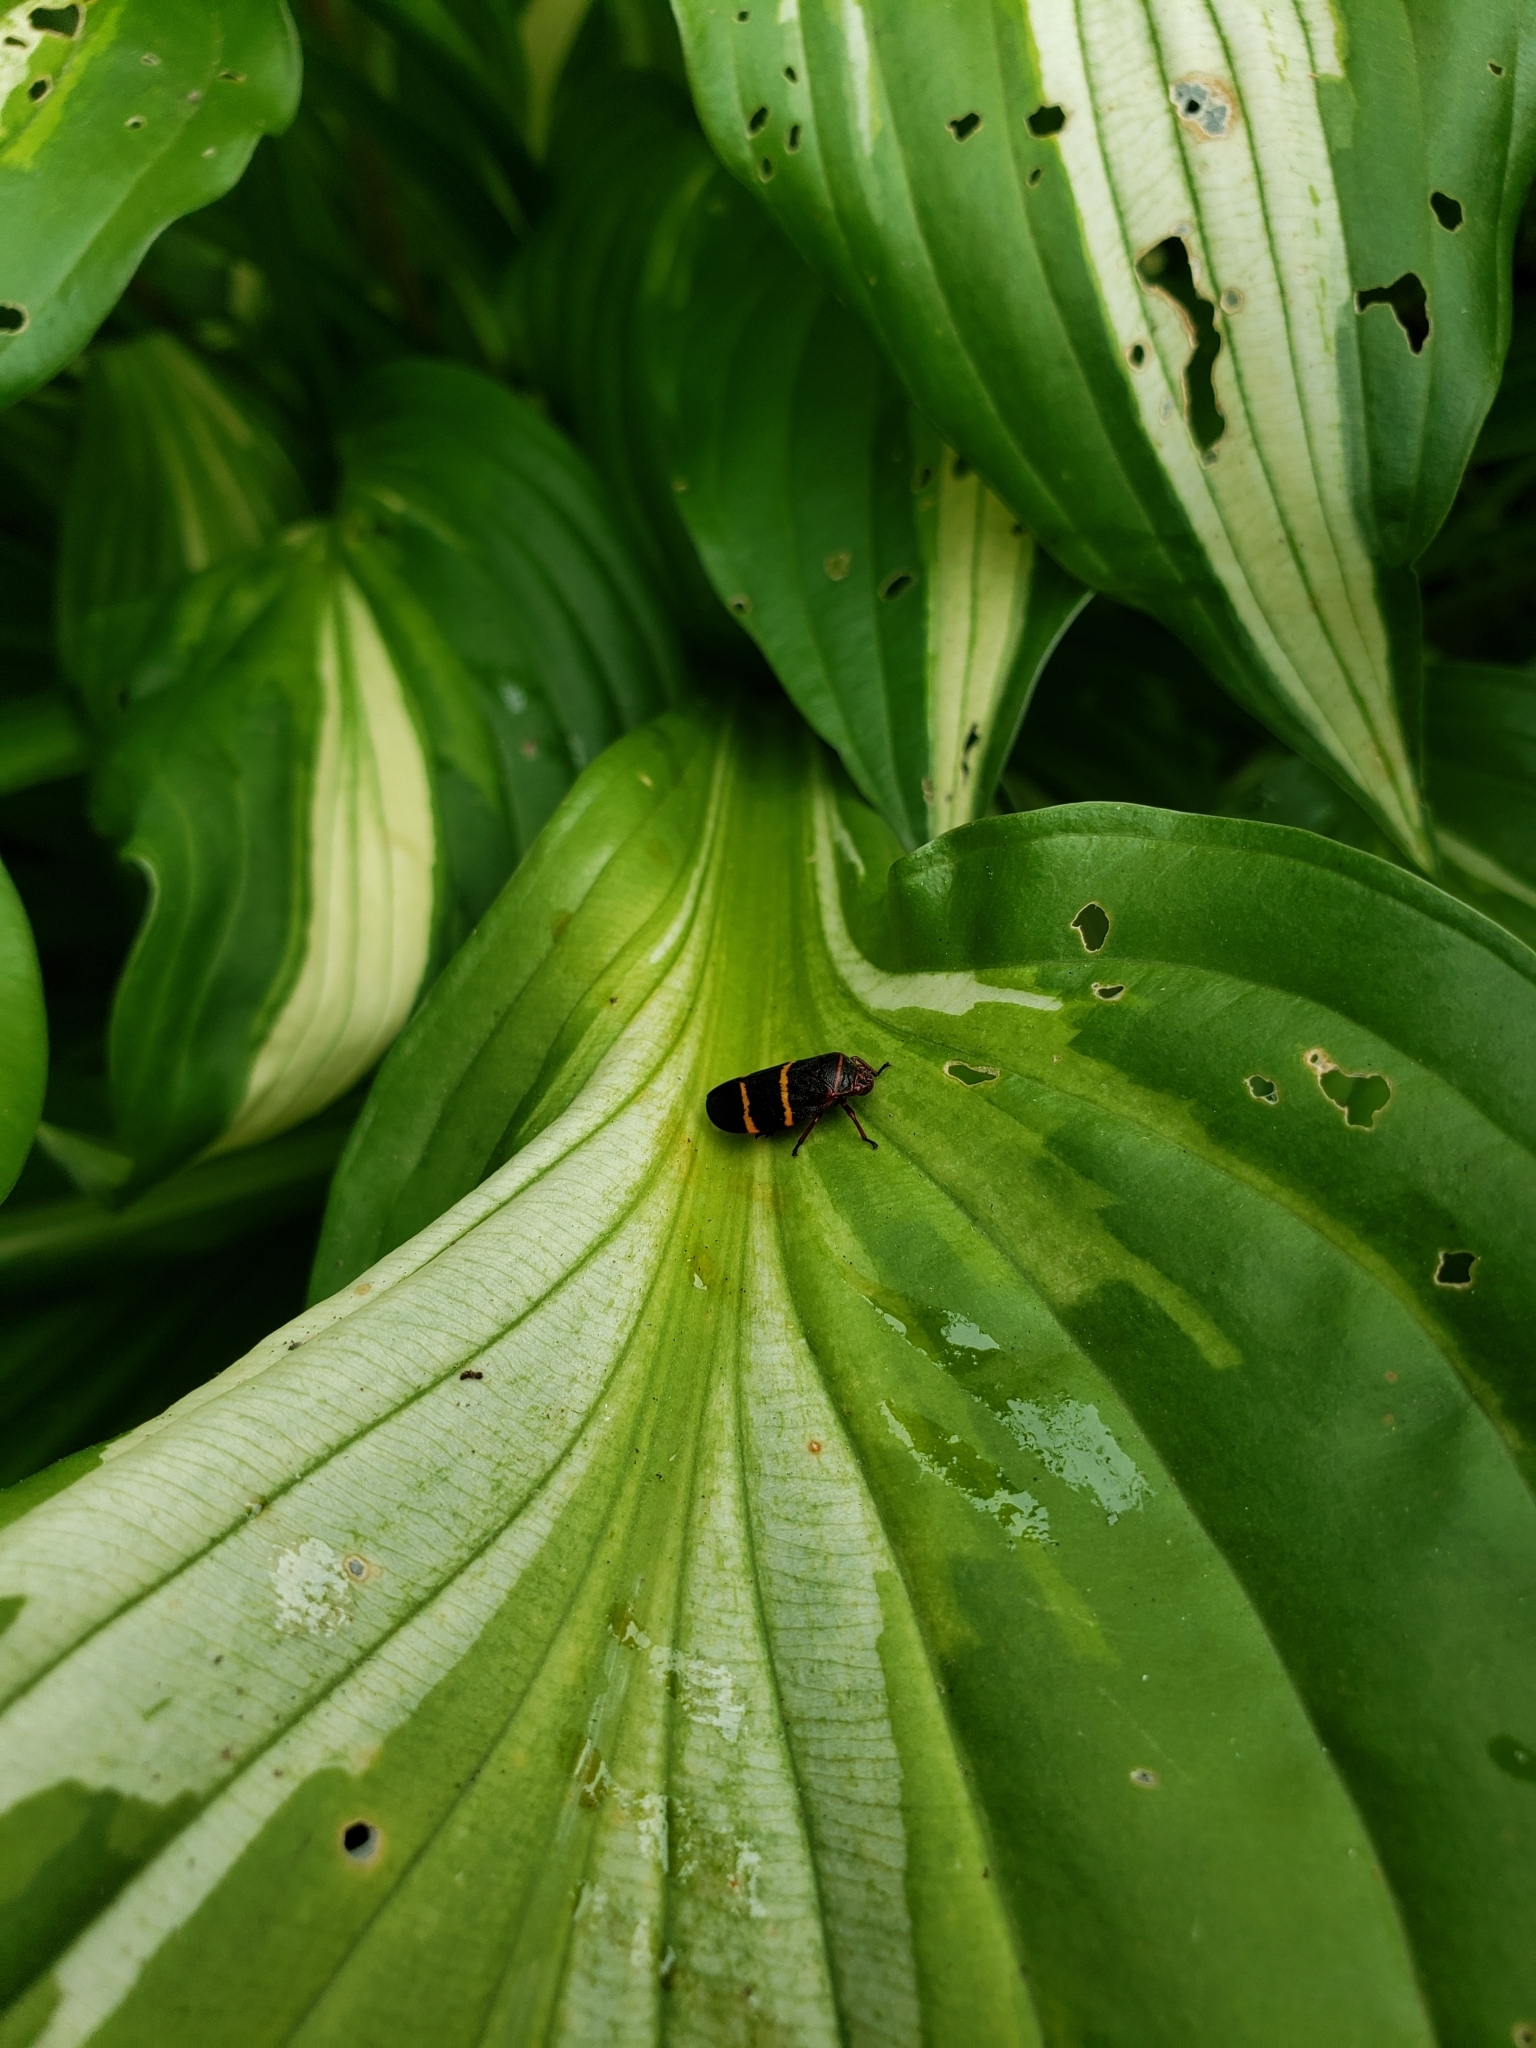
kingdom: Animalia
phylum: Arthropoda
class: Insecta
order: Hemiptera
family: Cercopidae
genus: Prosapia
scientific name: Prosapia bicincta
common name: Twolined spittlebug
